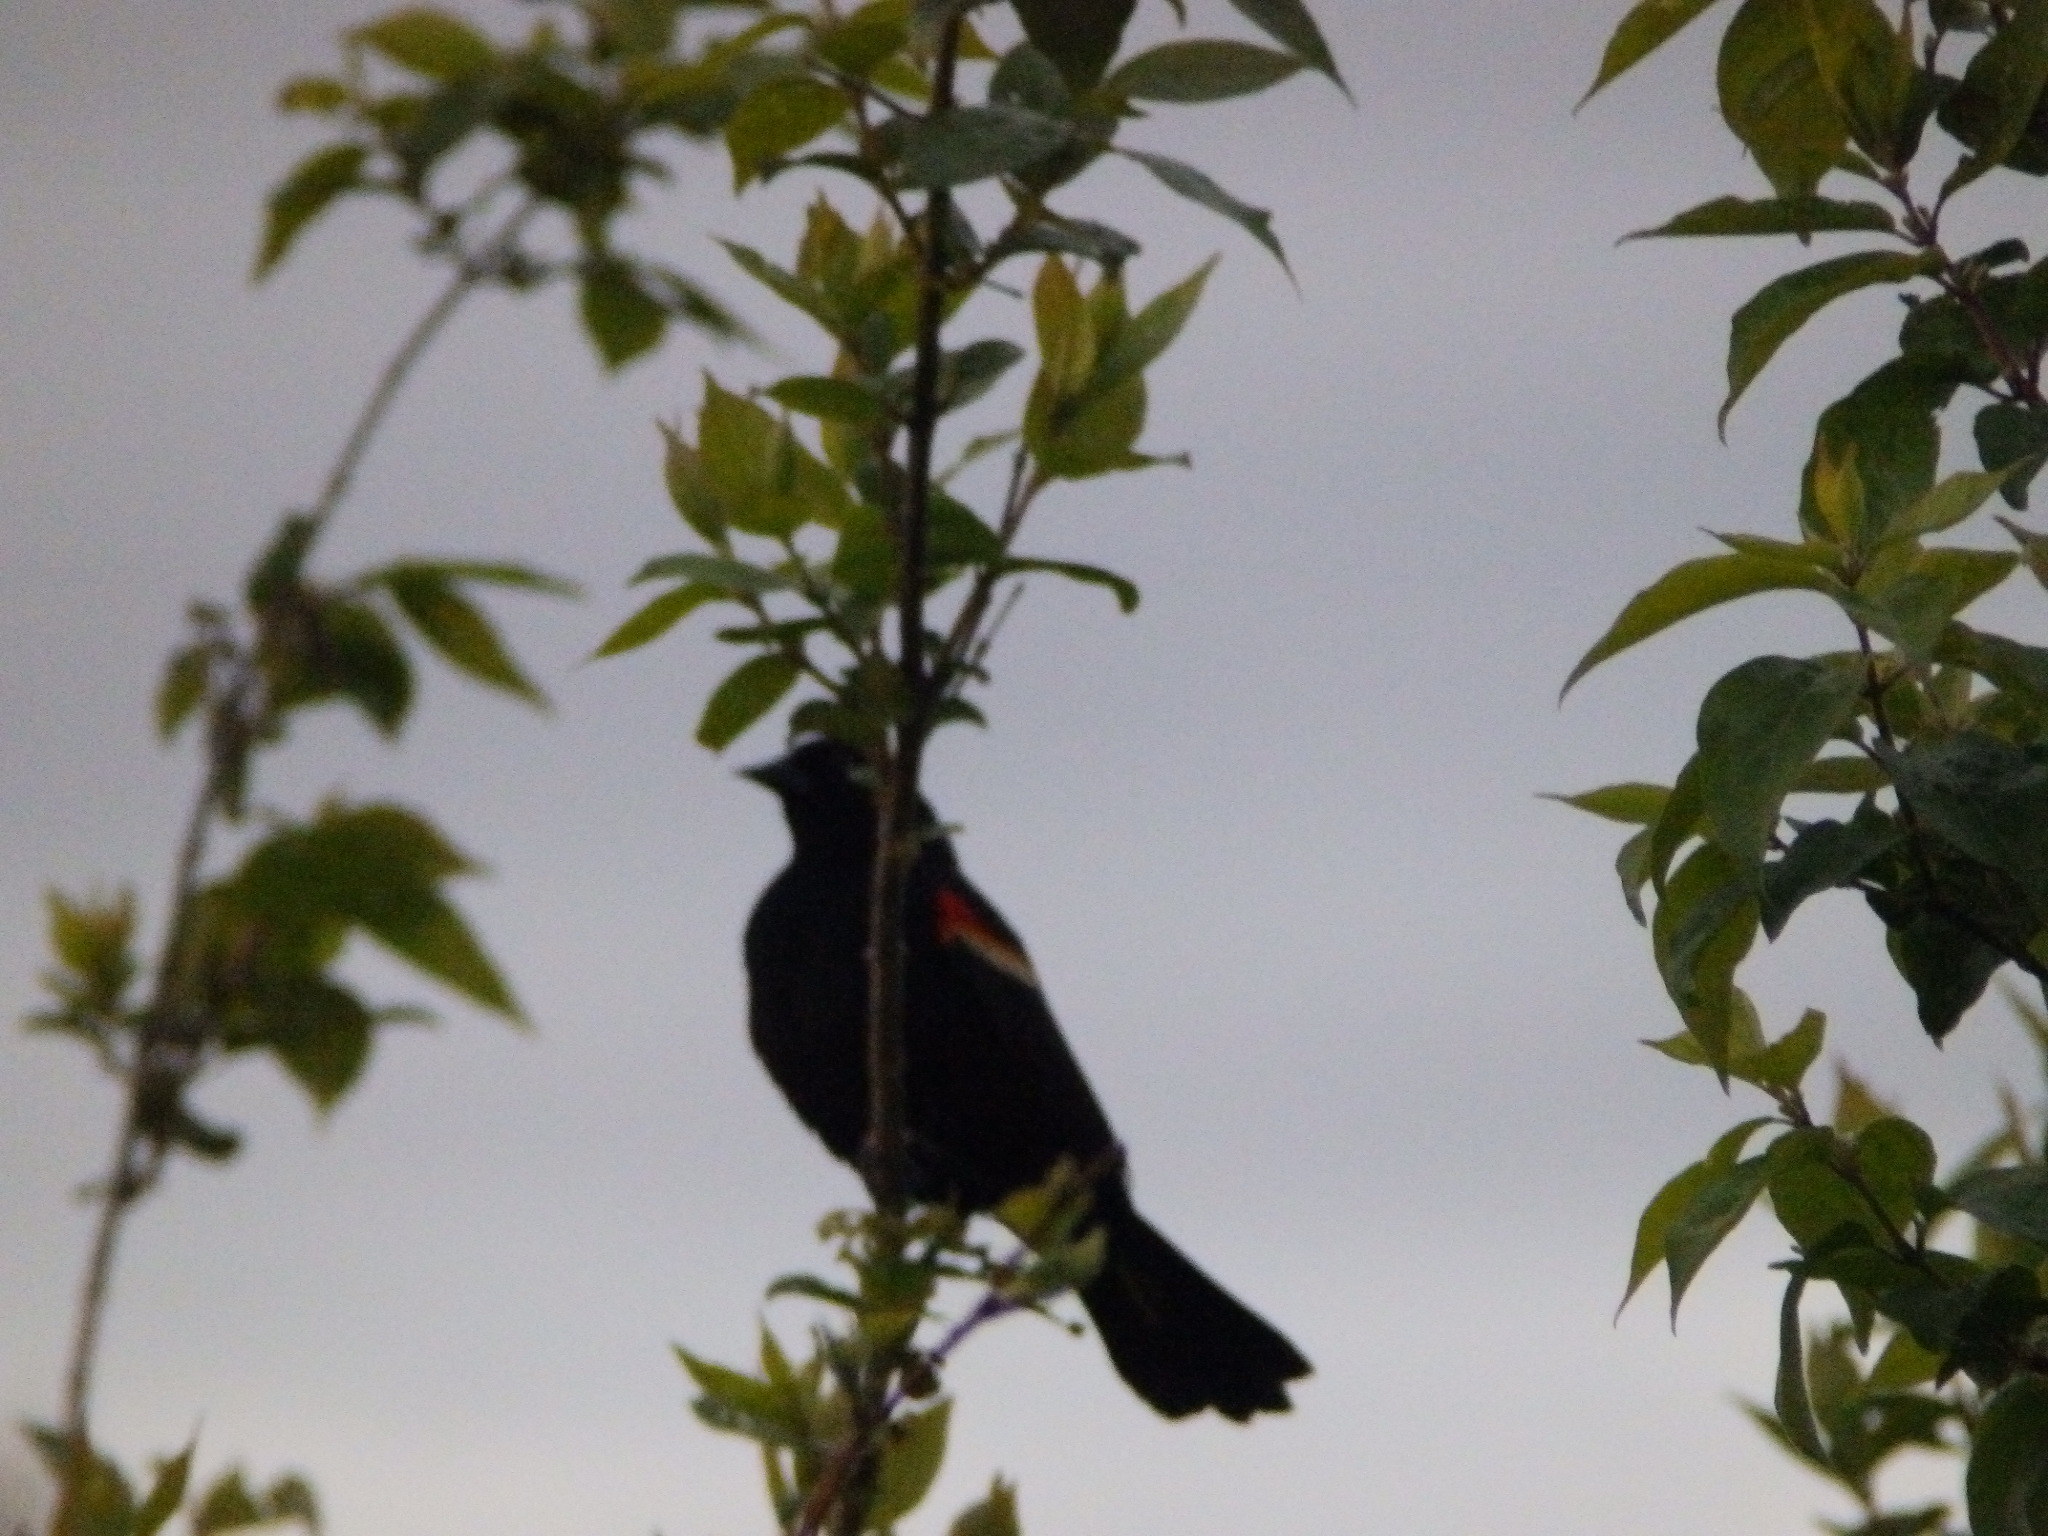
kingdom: Animalia
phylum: Chordata
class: Aves
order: Passeriformes
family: Icteridae
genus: Agelaius
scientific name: Agelaius phoeniceus
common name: Red-winged blackbird
